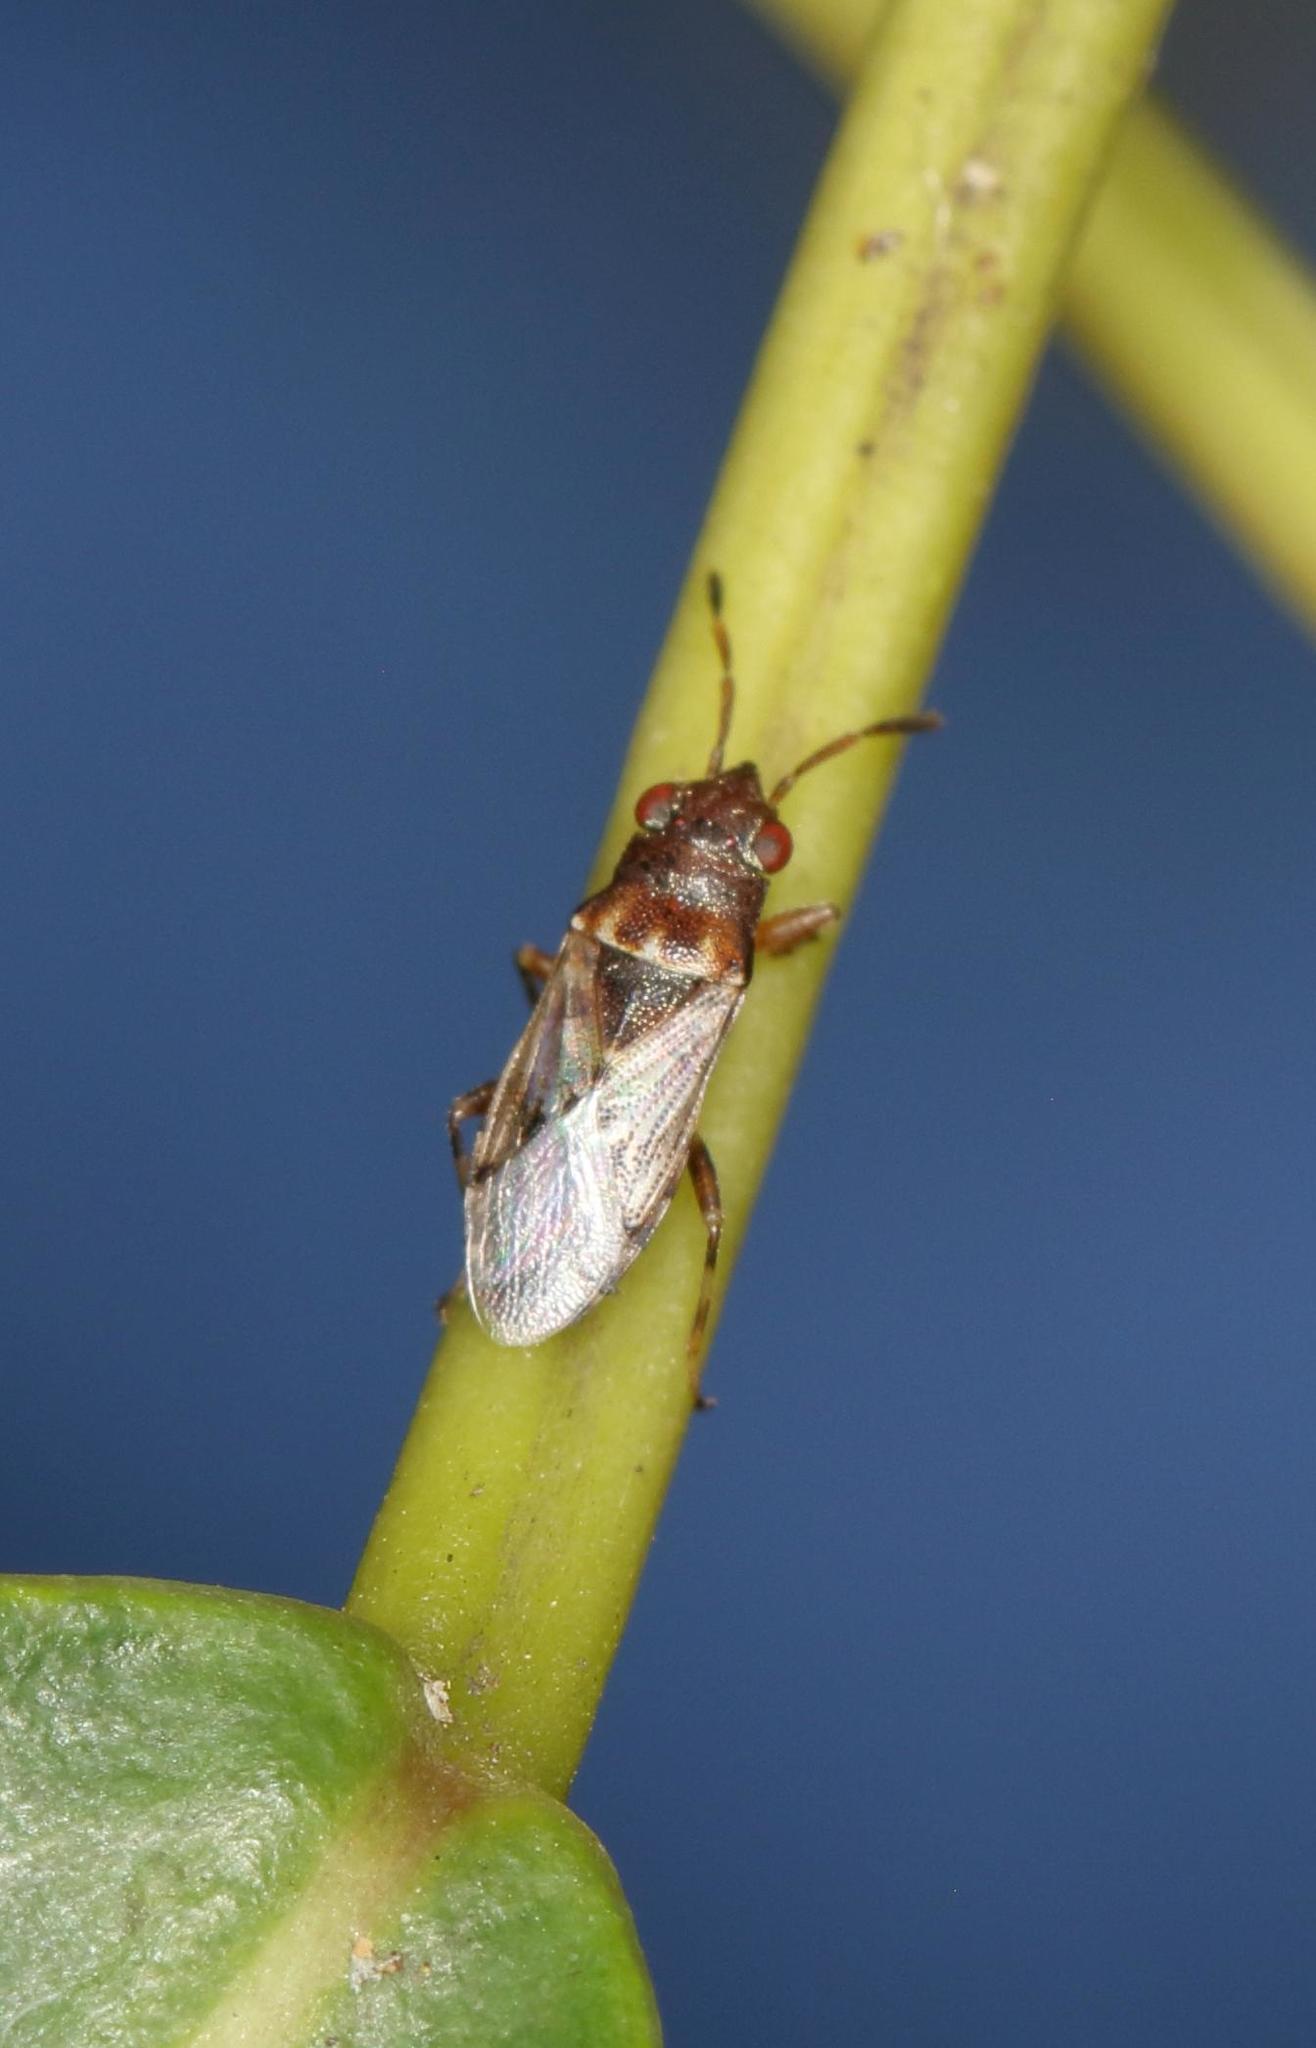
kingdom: Animalia
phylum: Arthropoda
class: Insecta
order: Hemiptera
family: Heterogastridae
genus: Dinomachellus
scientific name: Dinomachellus maculatus
